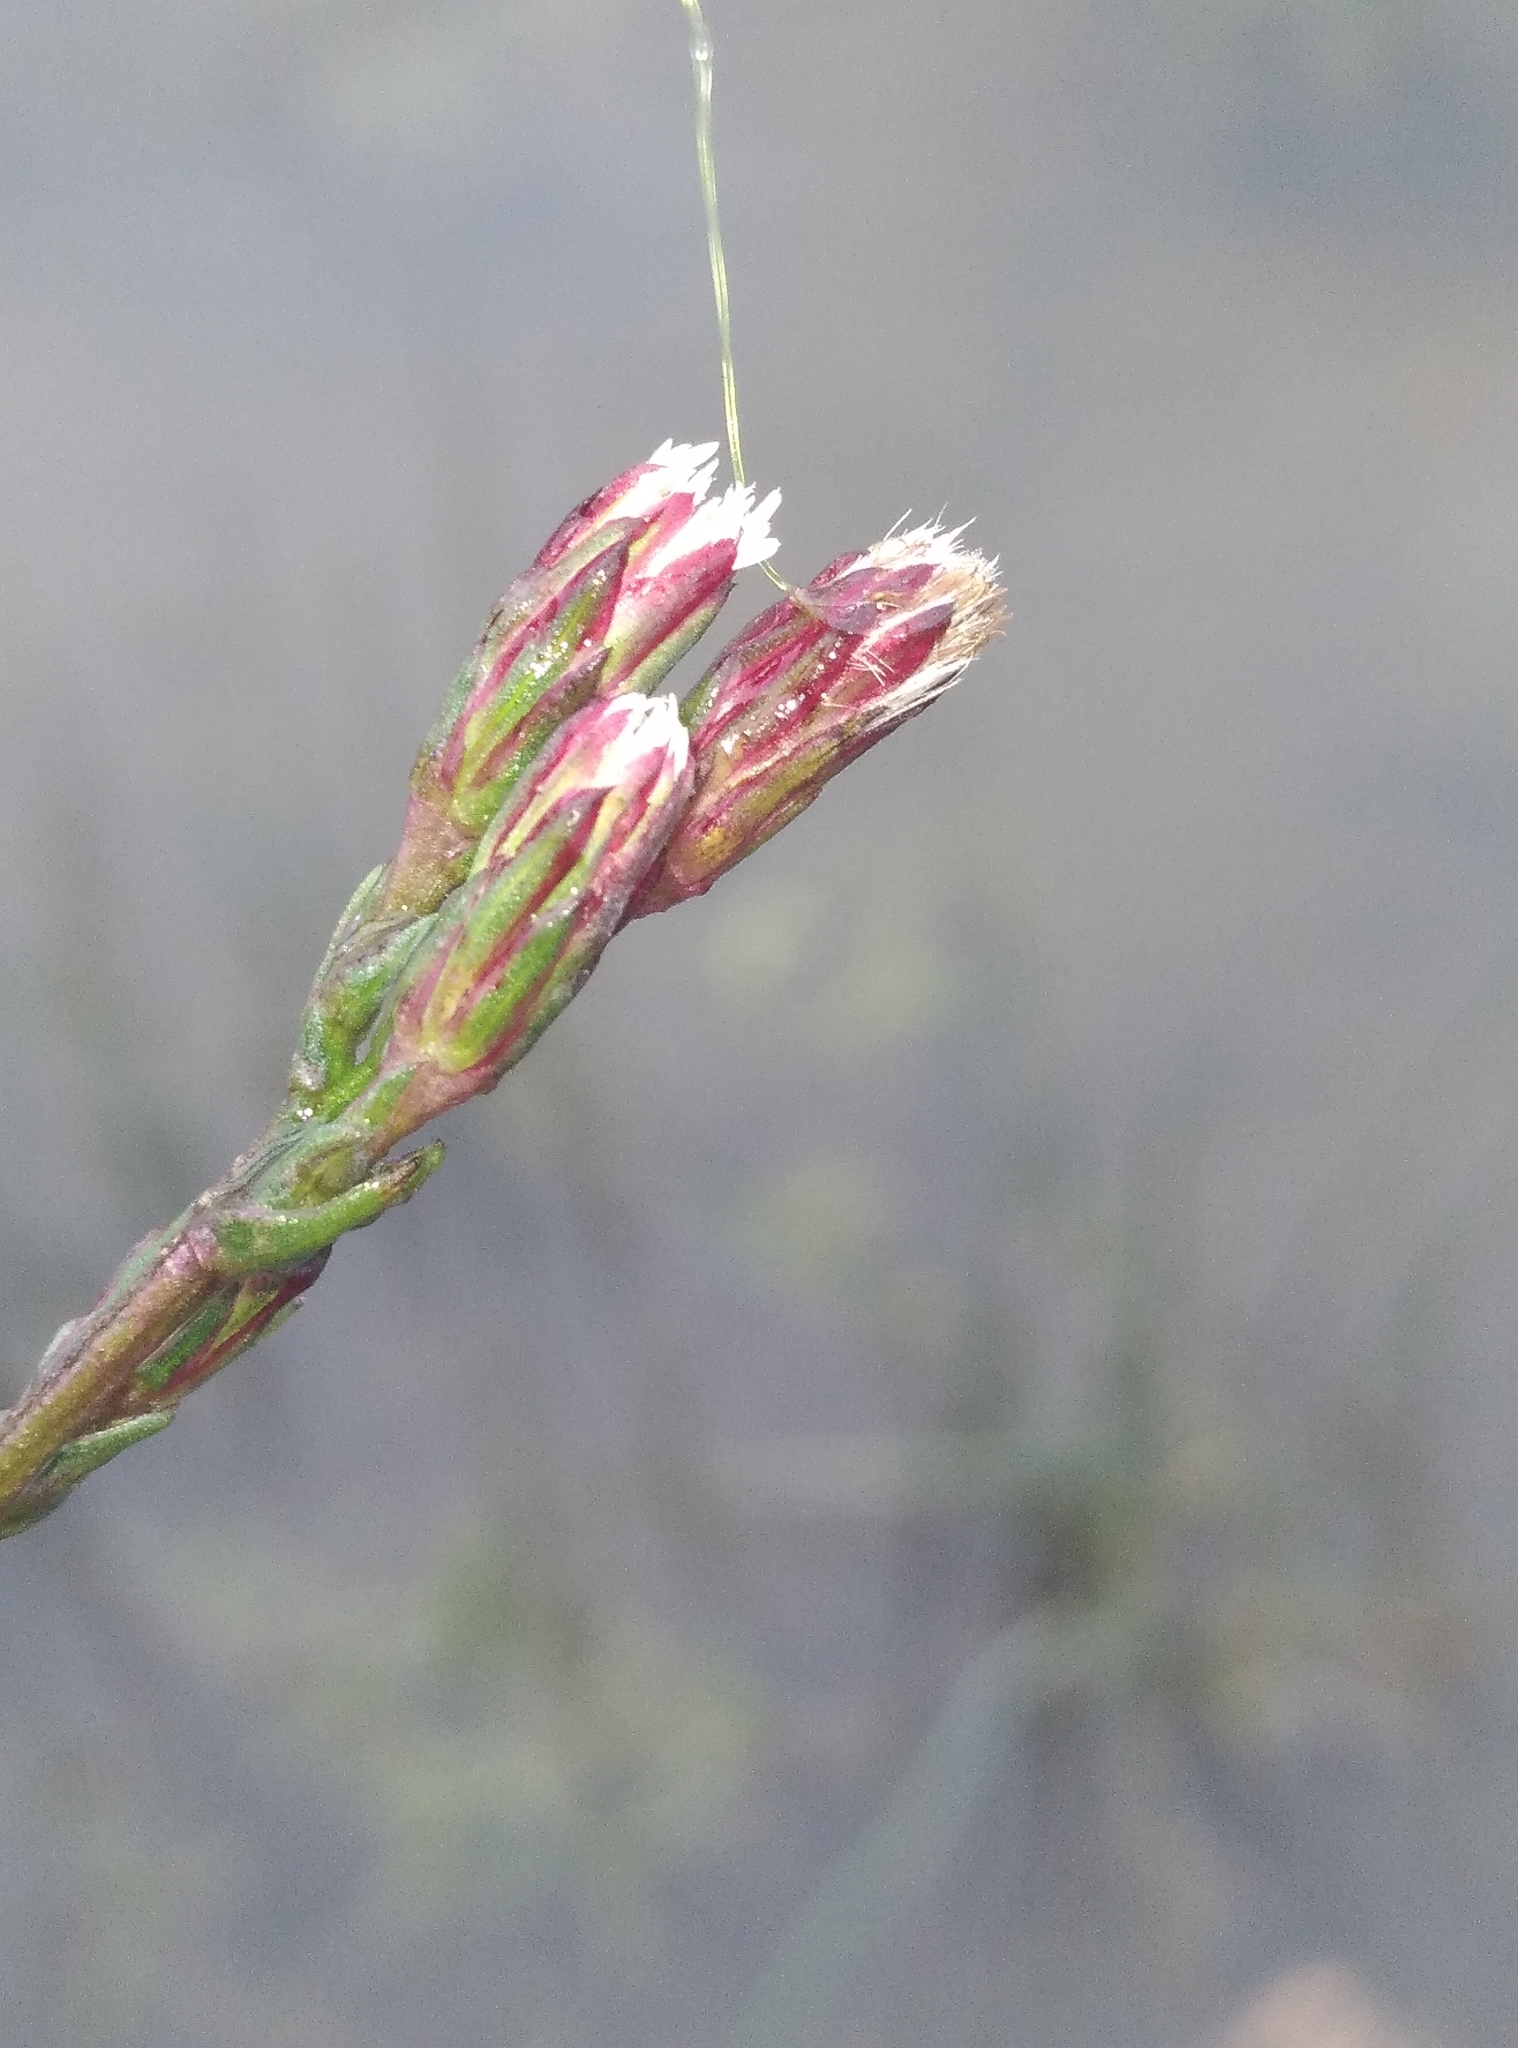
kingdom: Plantae
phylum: Tracheophyta
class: Magnoliopsida
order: Asterales
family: Asteraceae
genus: Symphyotrichum
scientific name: Symphyotrichum subulatum
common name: Annual saltmarsh aster
